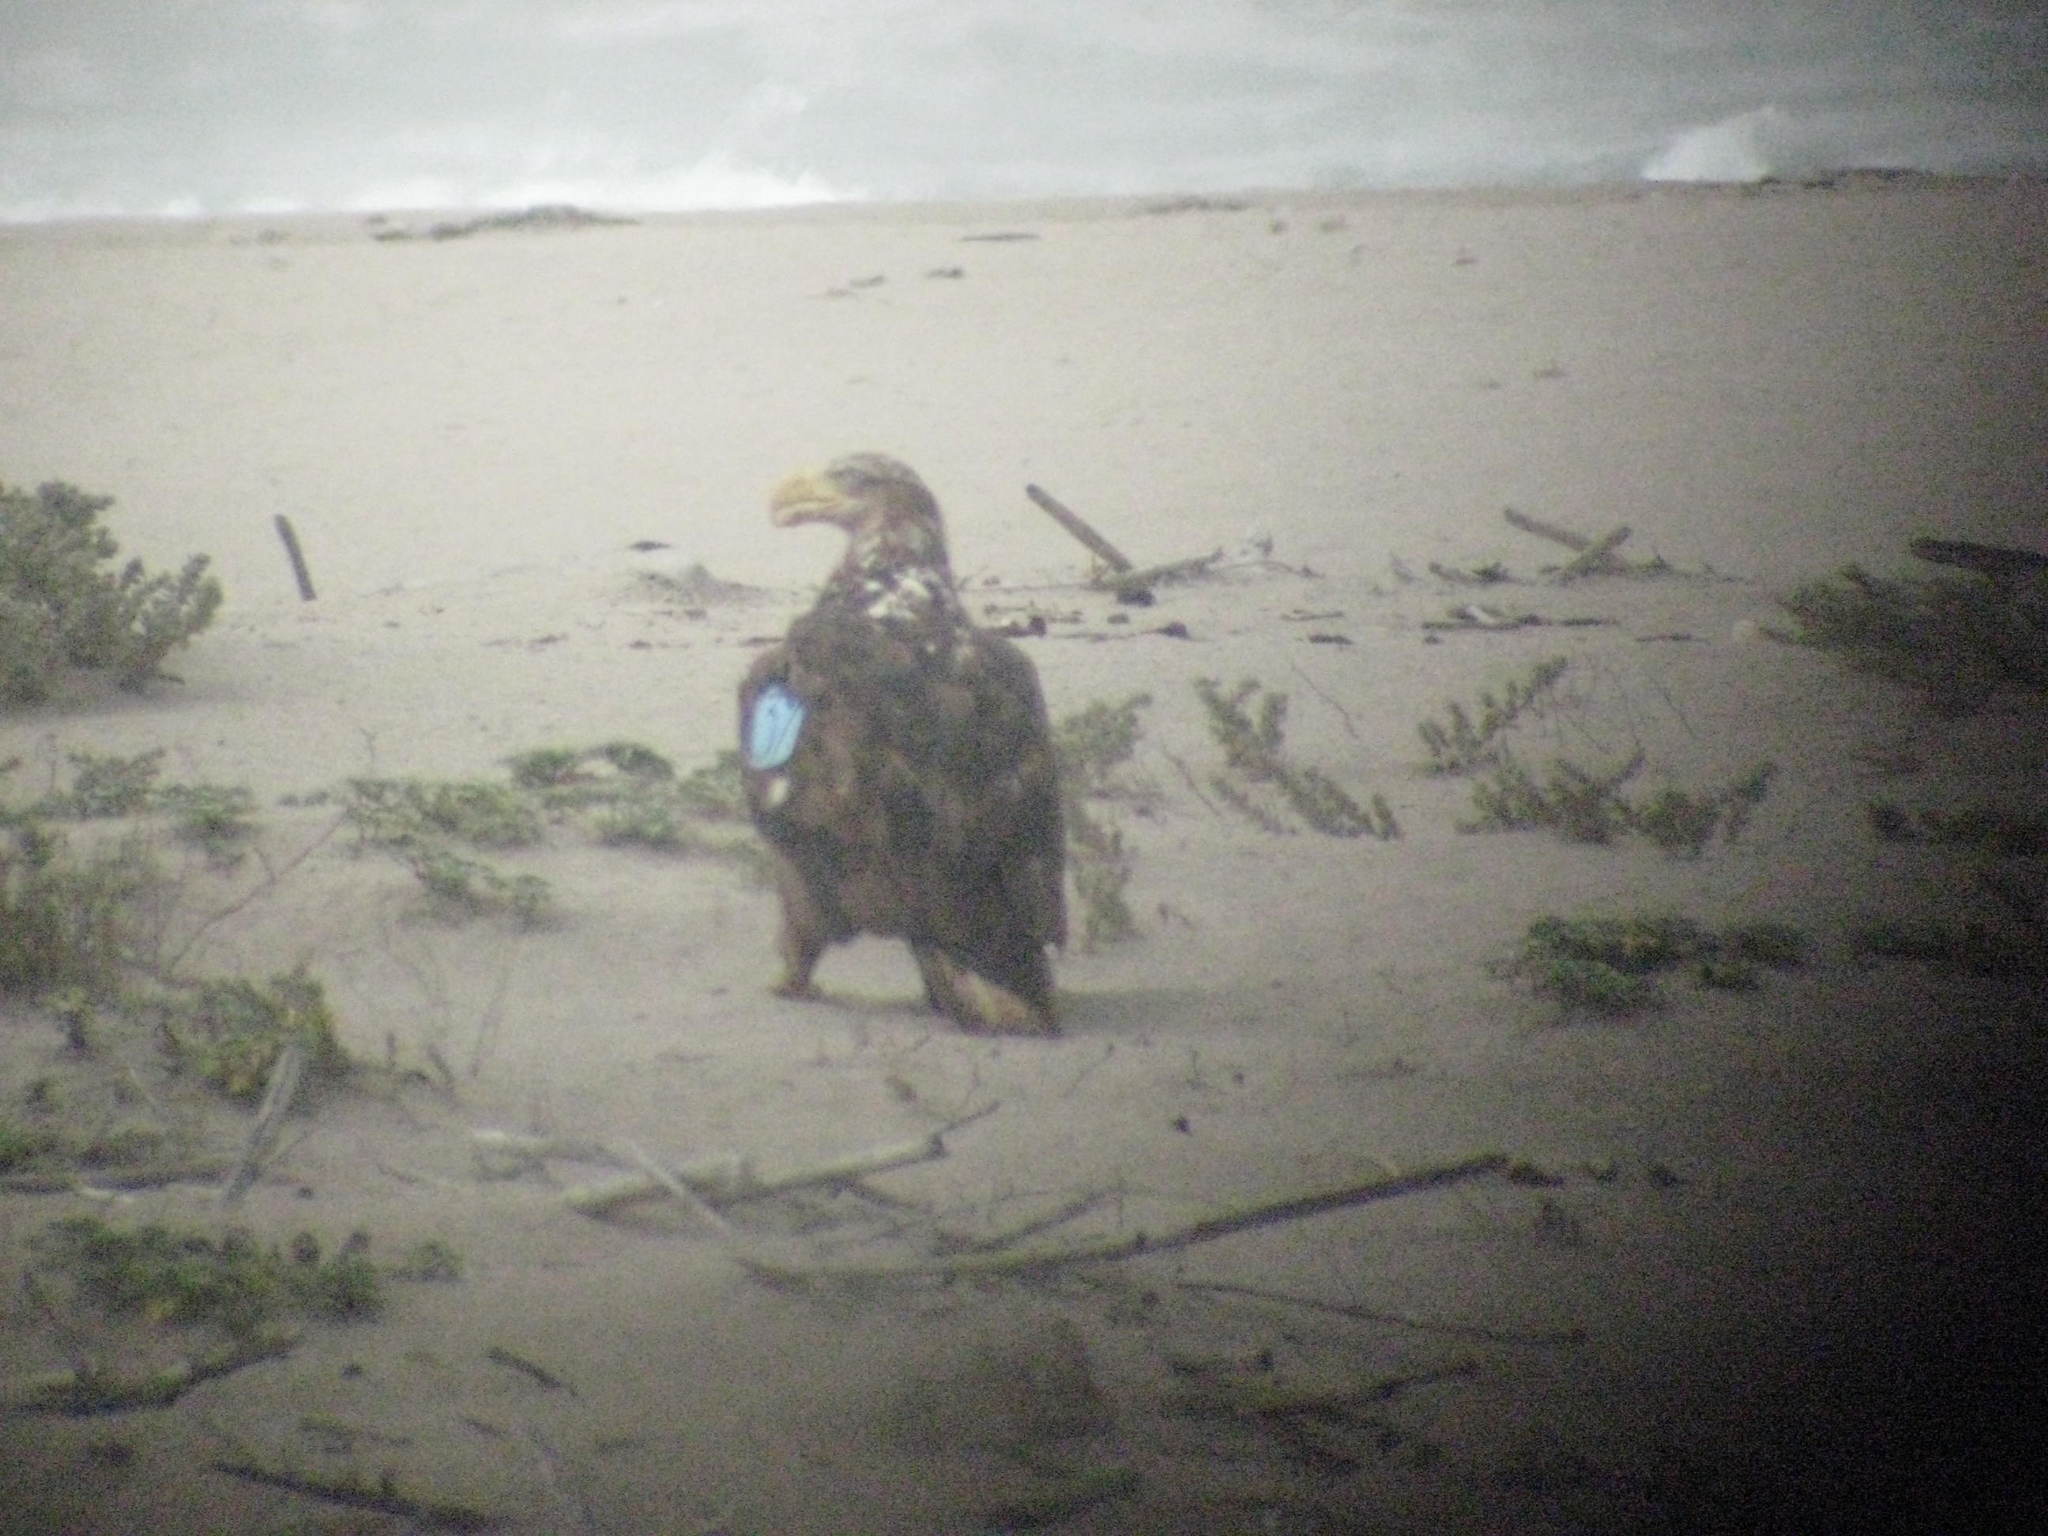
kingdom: Animalia
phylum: Chordata
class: Aves
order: Accipitriformes
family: Accipitridae
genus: Haliaeetus
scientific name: Haliaeetus leucocephalus
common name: Bald eagle
